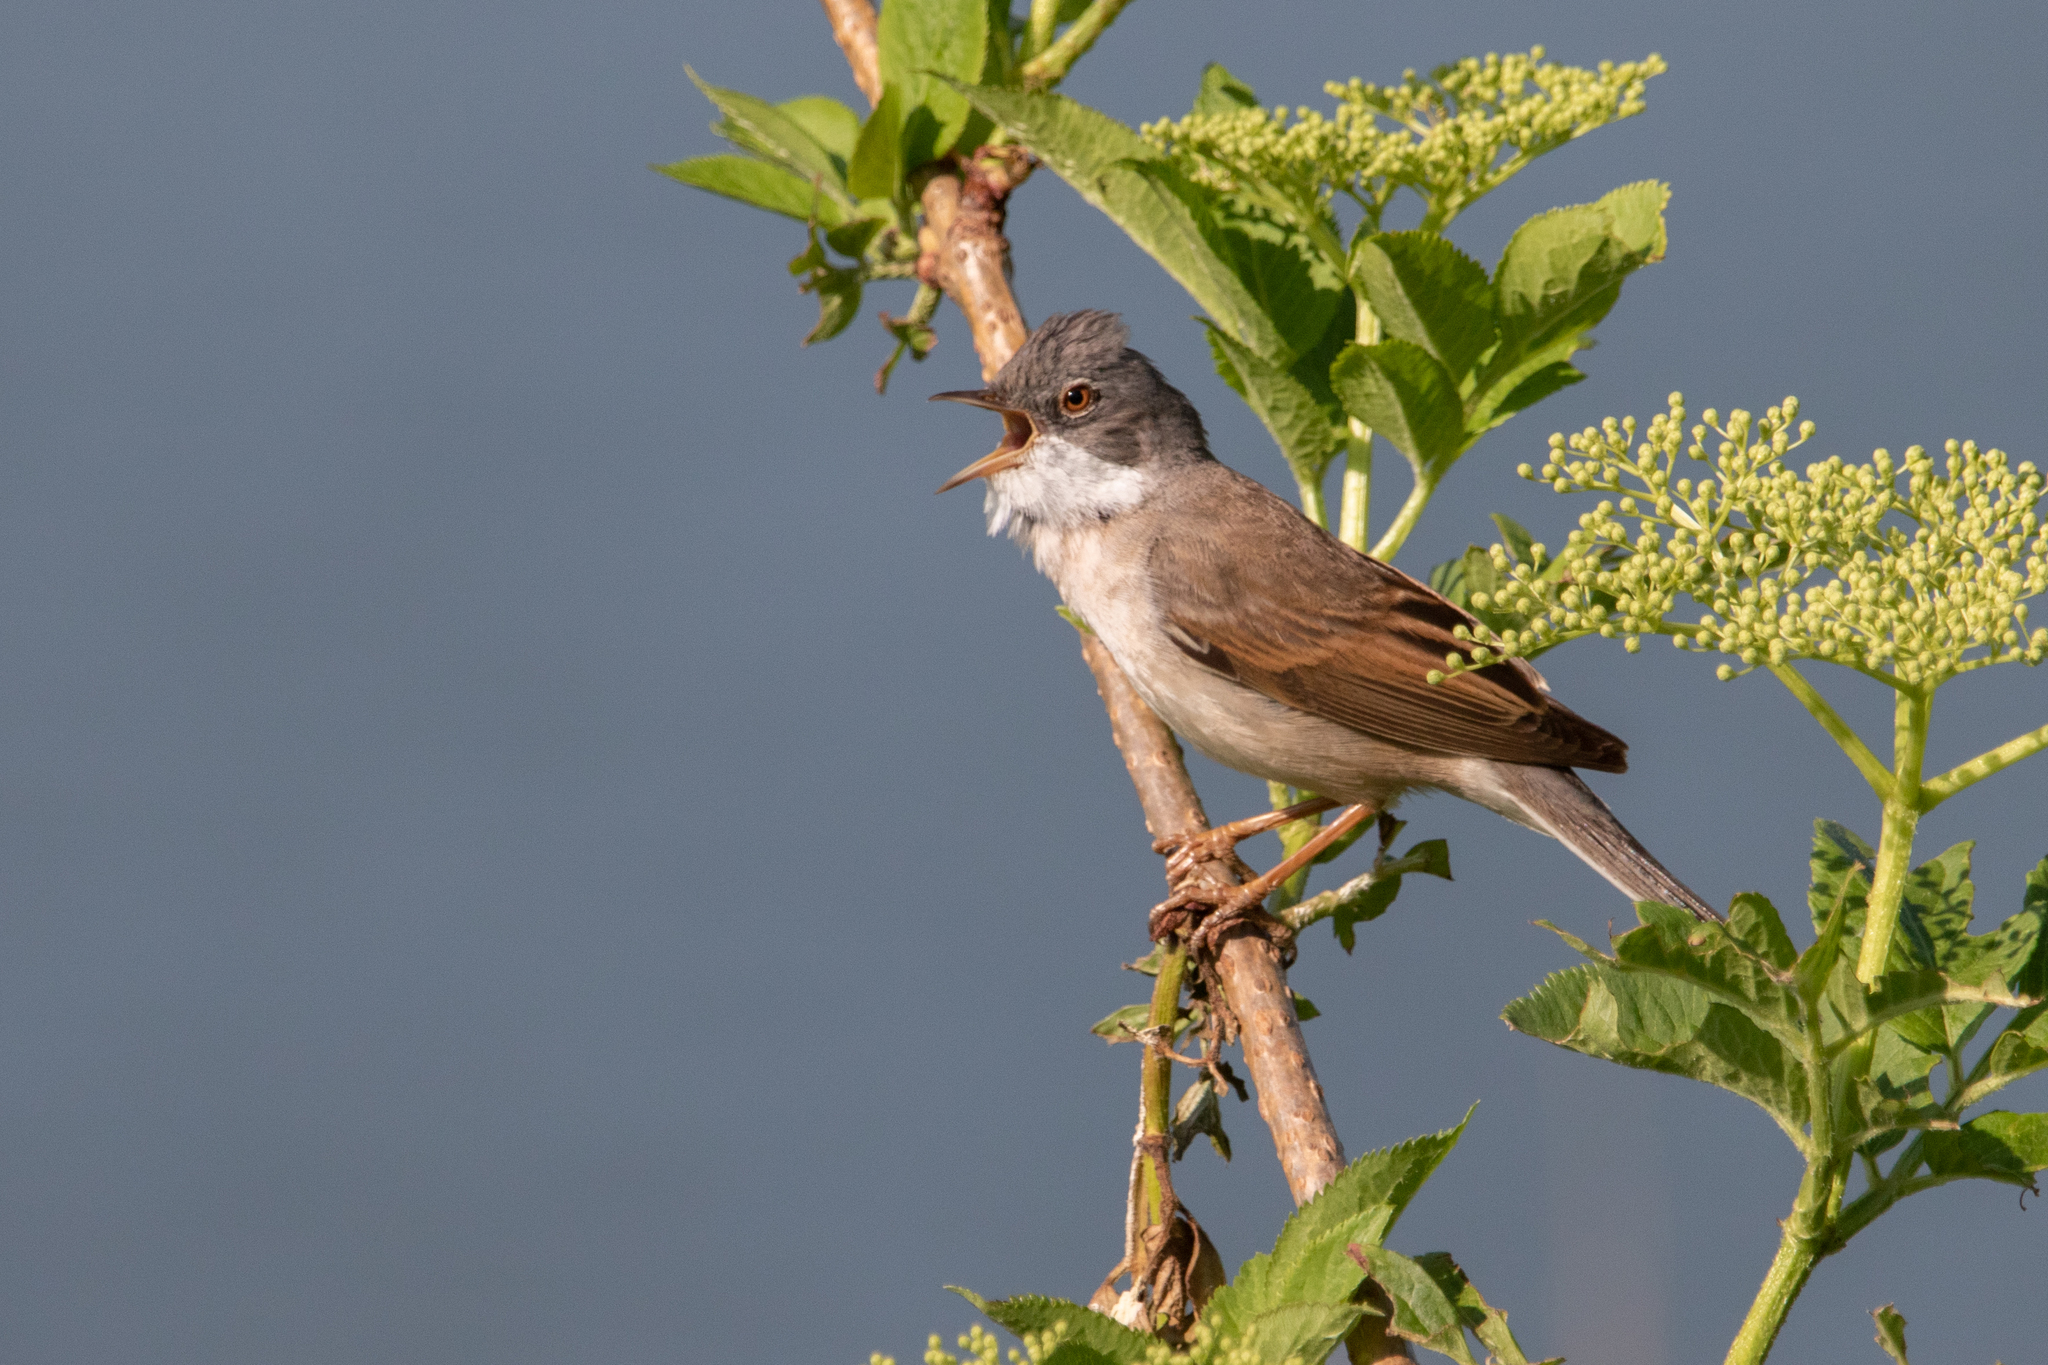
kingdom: Animalia
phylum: Chordata
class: Aves
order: Passeriformes
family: Sylviidae
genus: Sylvia
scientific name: Sylvia communis
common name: Common whitethroat
